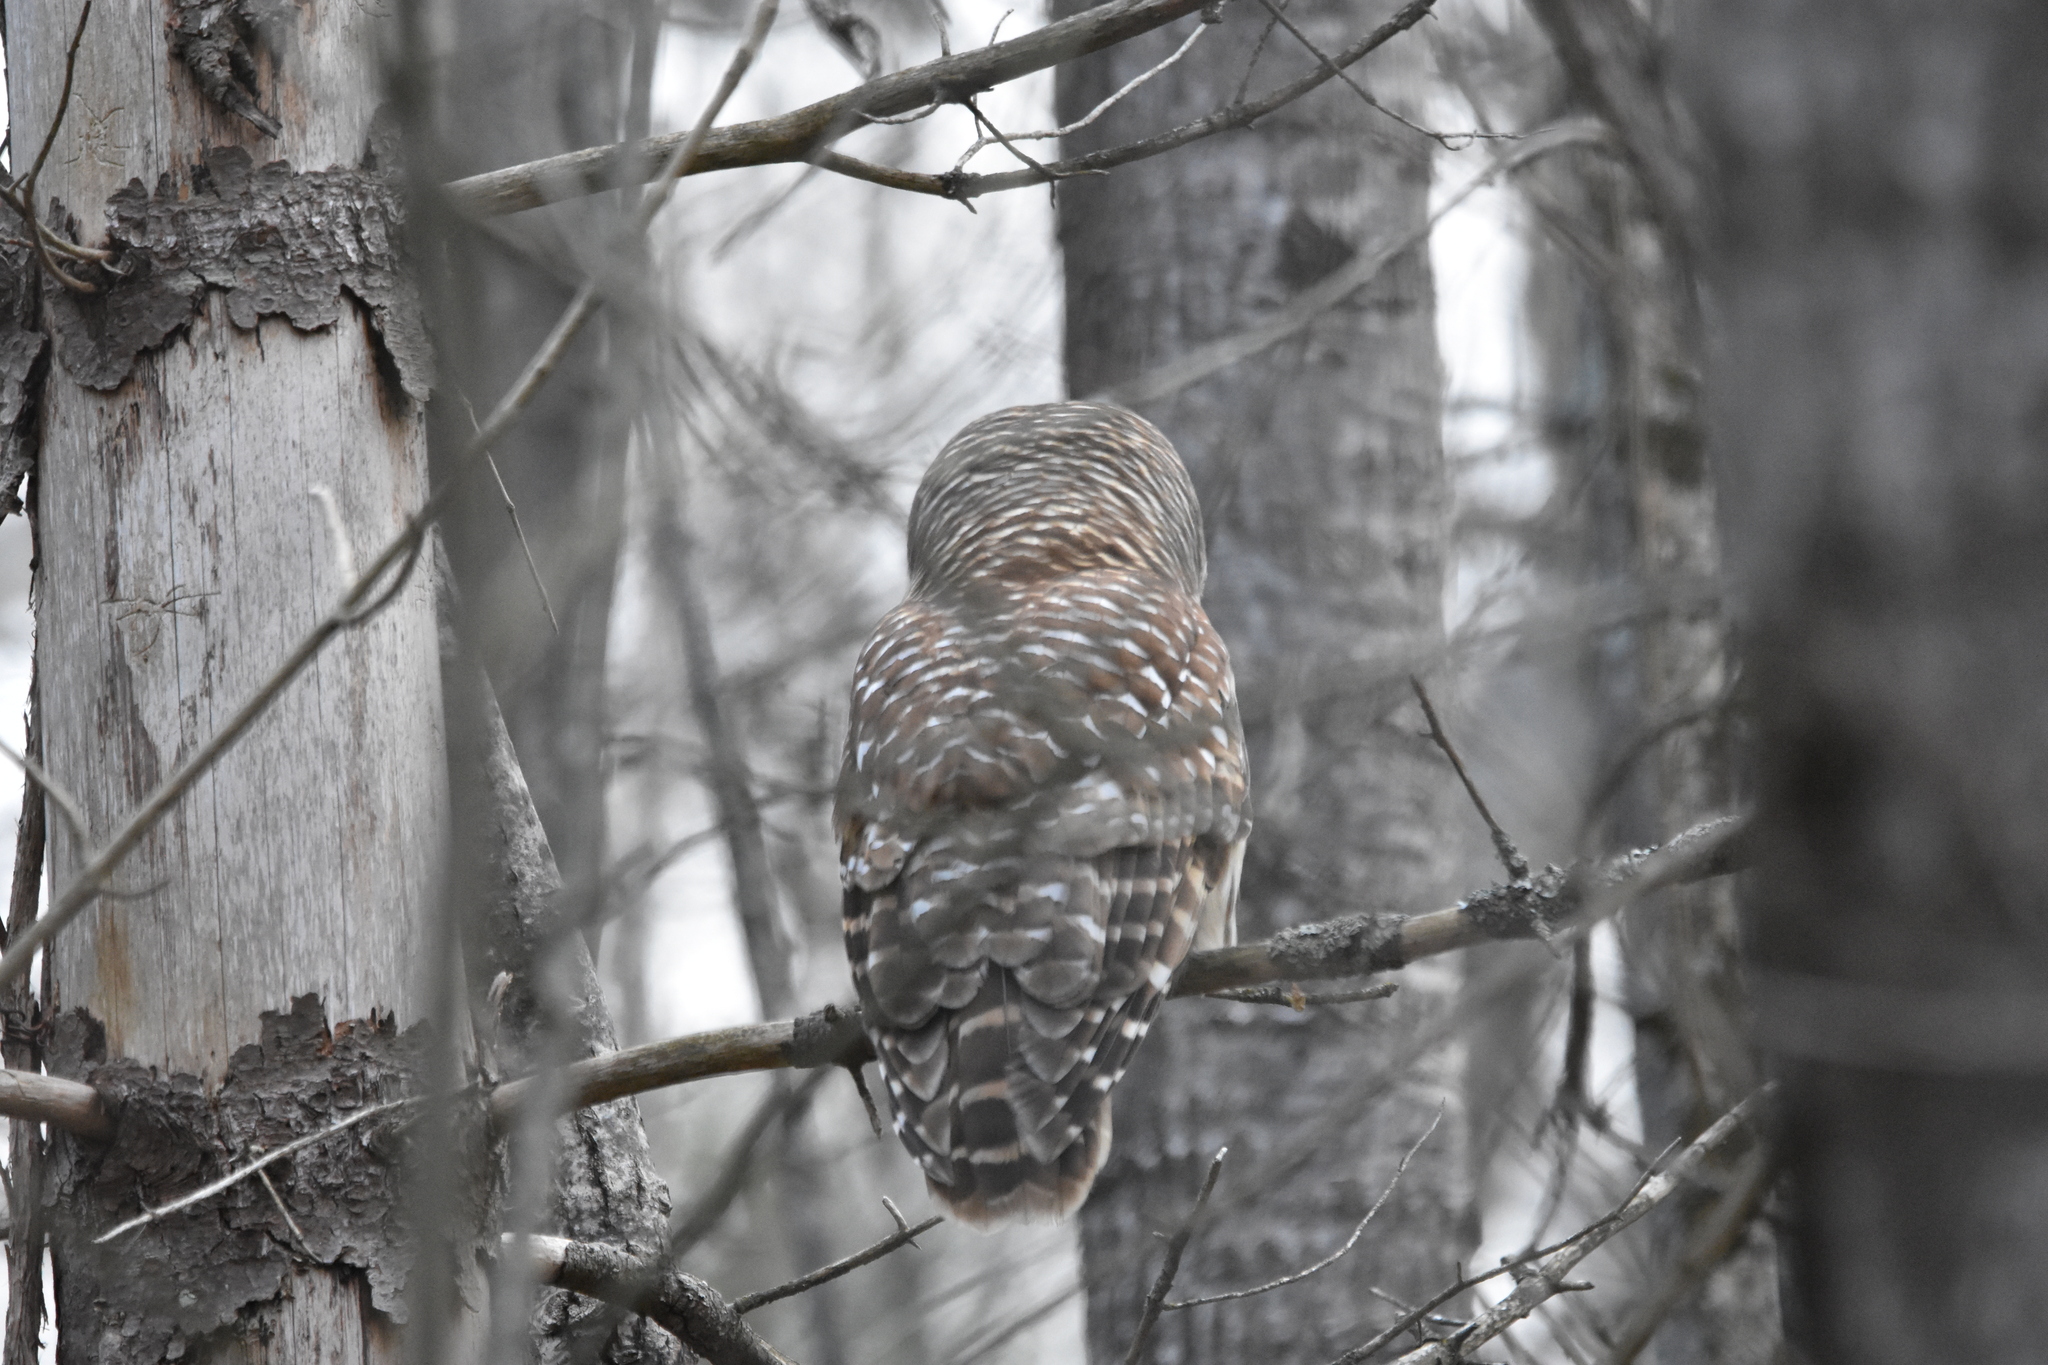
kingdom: Animalia
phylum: Chordata
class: Aves
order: Strigiformes
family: Strigidae
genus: Strix
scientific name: Strix varia
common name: Barred owl
